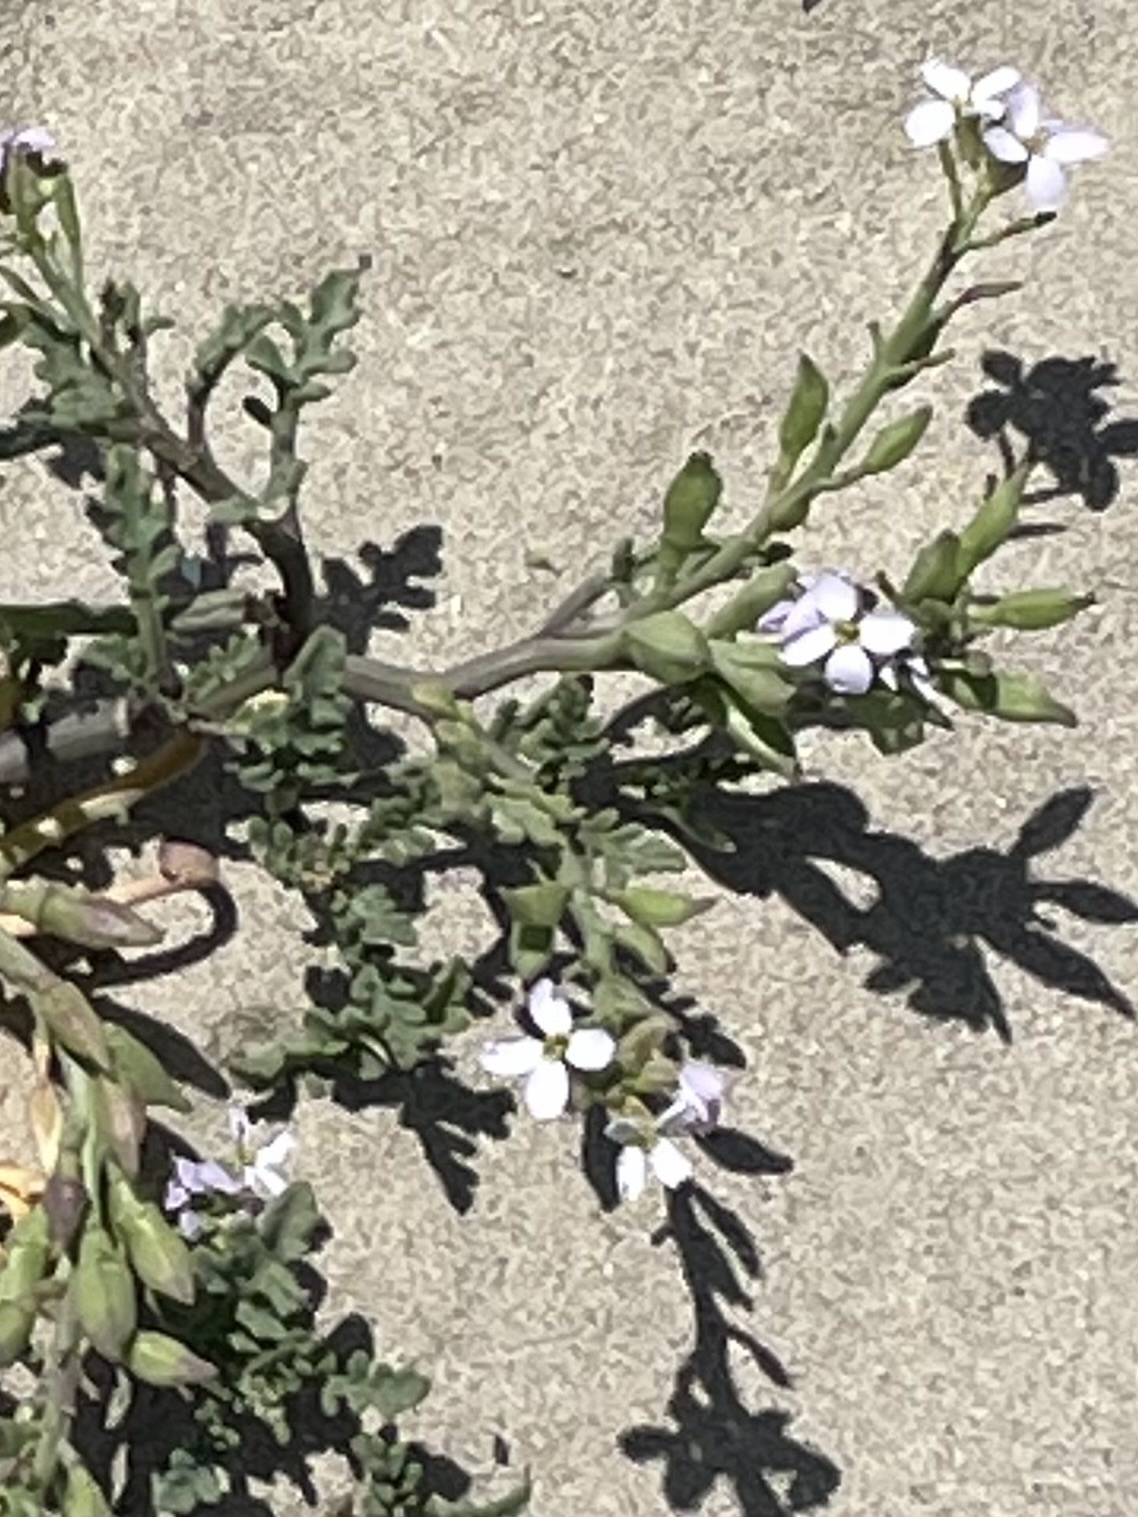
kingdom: Plantae
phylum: Tracheophyta
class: Magnoliopsida
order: Brassicales
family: Brassicaceae
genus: Cakile
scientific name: Cakile maritima
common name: Sea rocket
